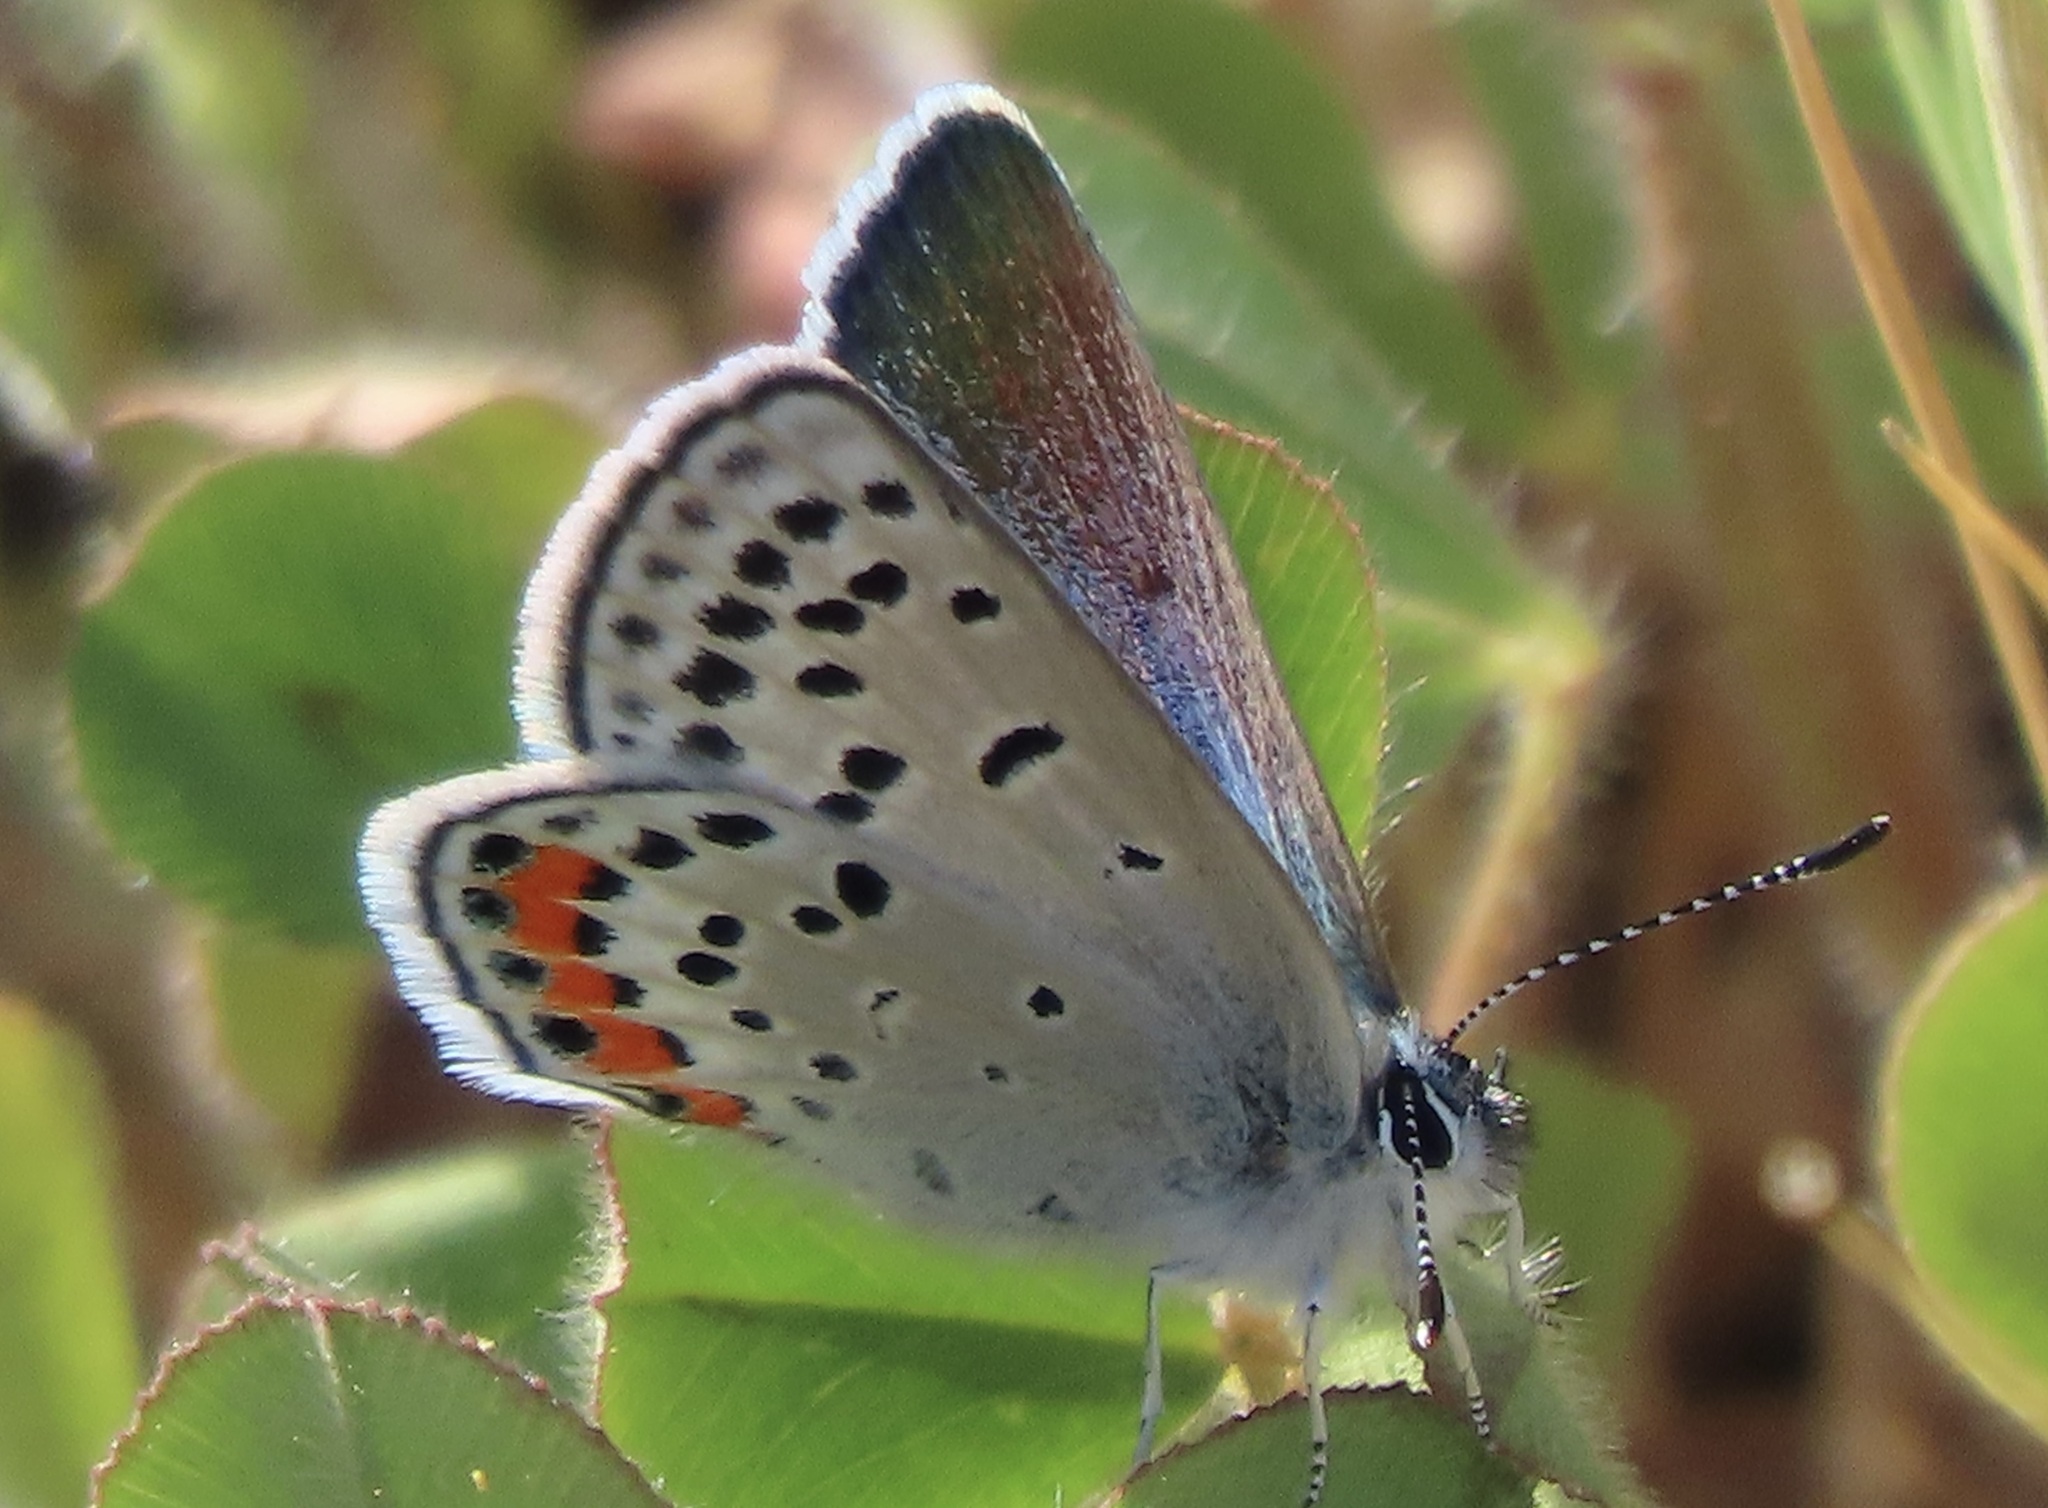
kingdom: Animalia
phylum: Arthropoda
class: Insecta
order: Lepidoptera
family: Lycaenidae
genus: Icaricia
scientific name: Icaricia acmon
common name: Acmon blue
